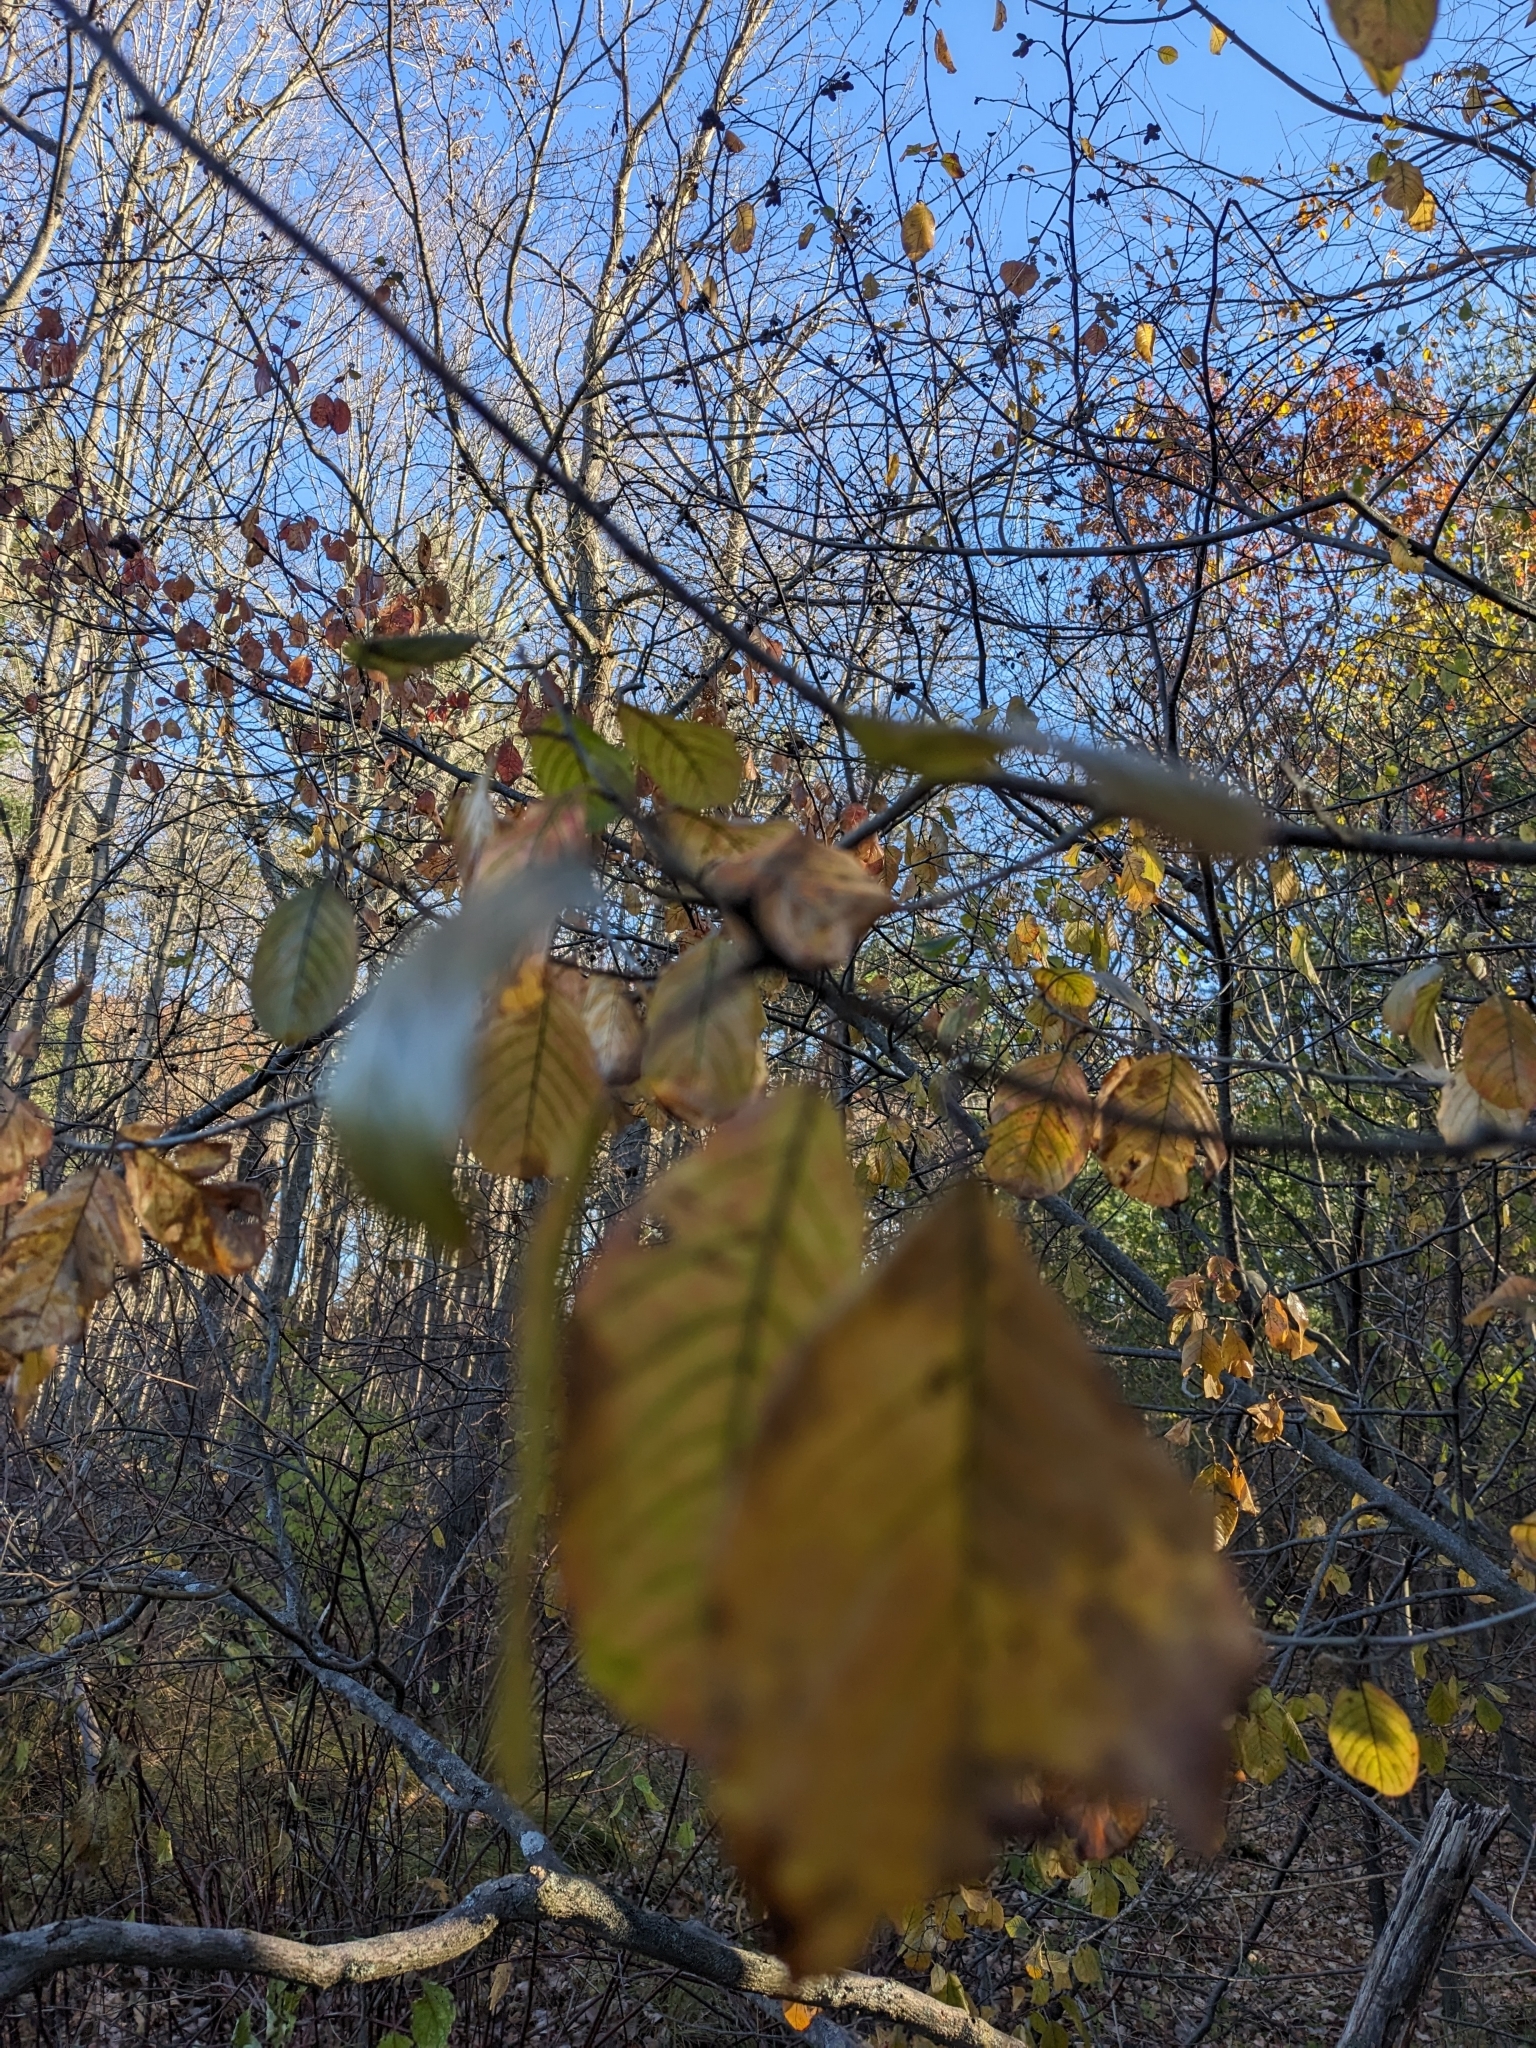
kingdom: Plantae
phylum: Tracheophyta
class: Magnoliopsida
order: Rosales
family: Rhamnaceae
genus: Frangula
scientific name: Frangula alnus
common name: Alder buckthorn
